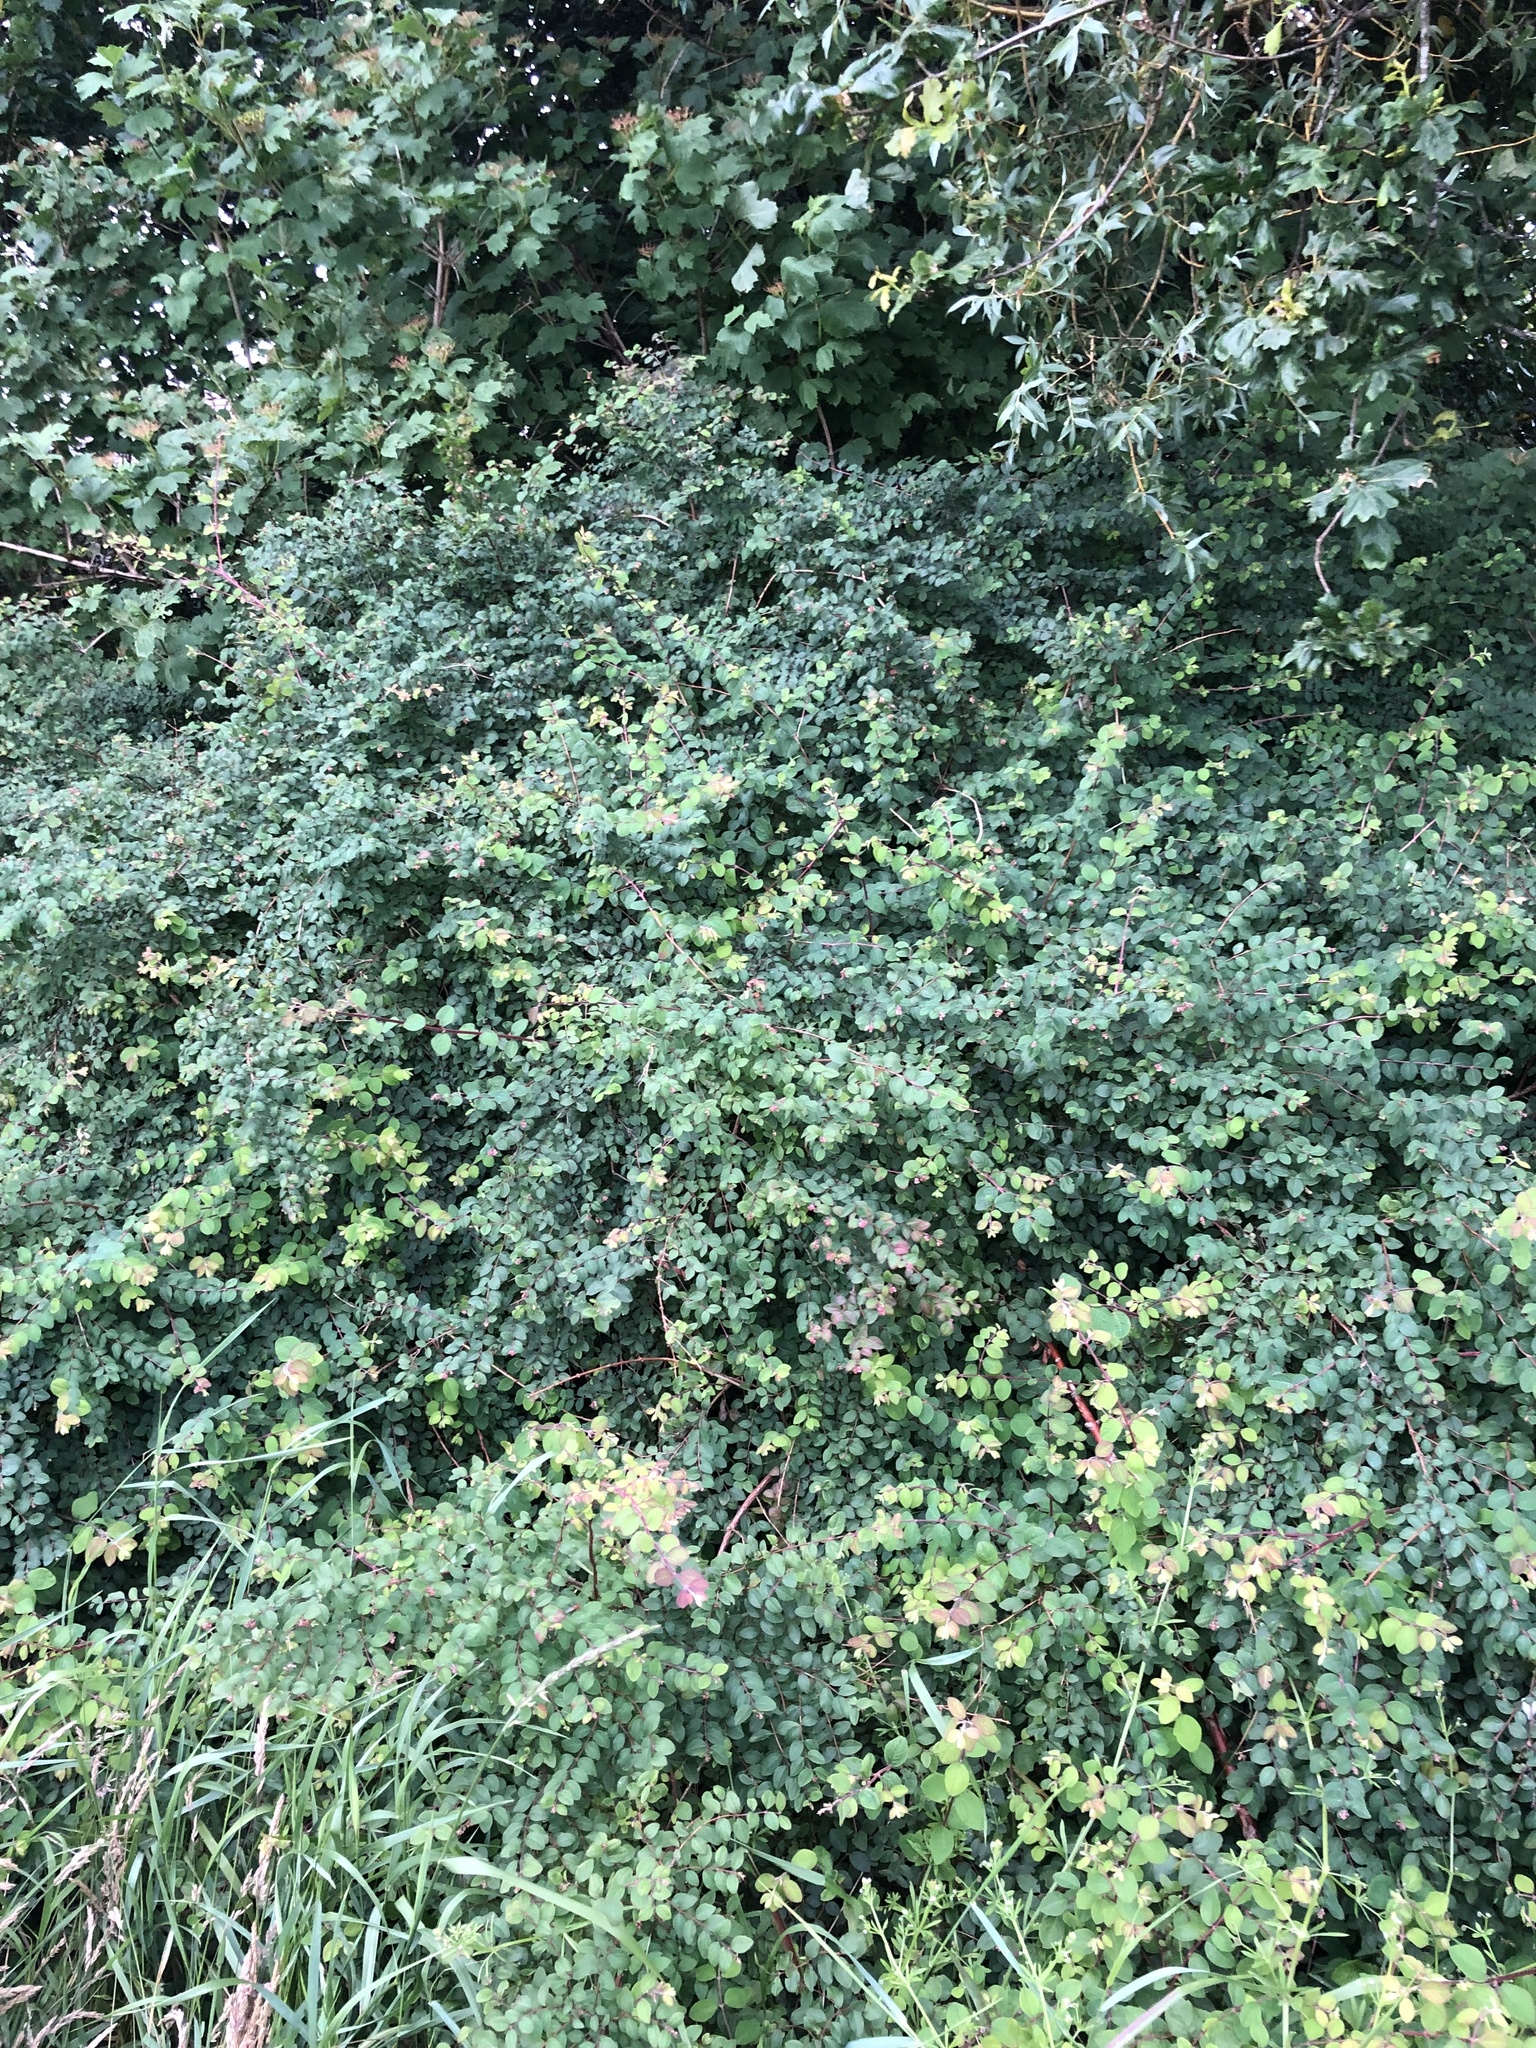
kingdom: Plantae
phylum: Tracheophyta
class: Magnoliopsida
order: Dipsacales
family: Caprifoliaceae
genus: Symphoricarpos
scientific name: Symphoricarpos albus
